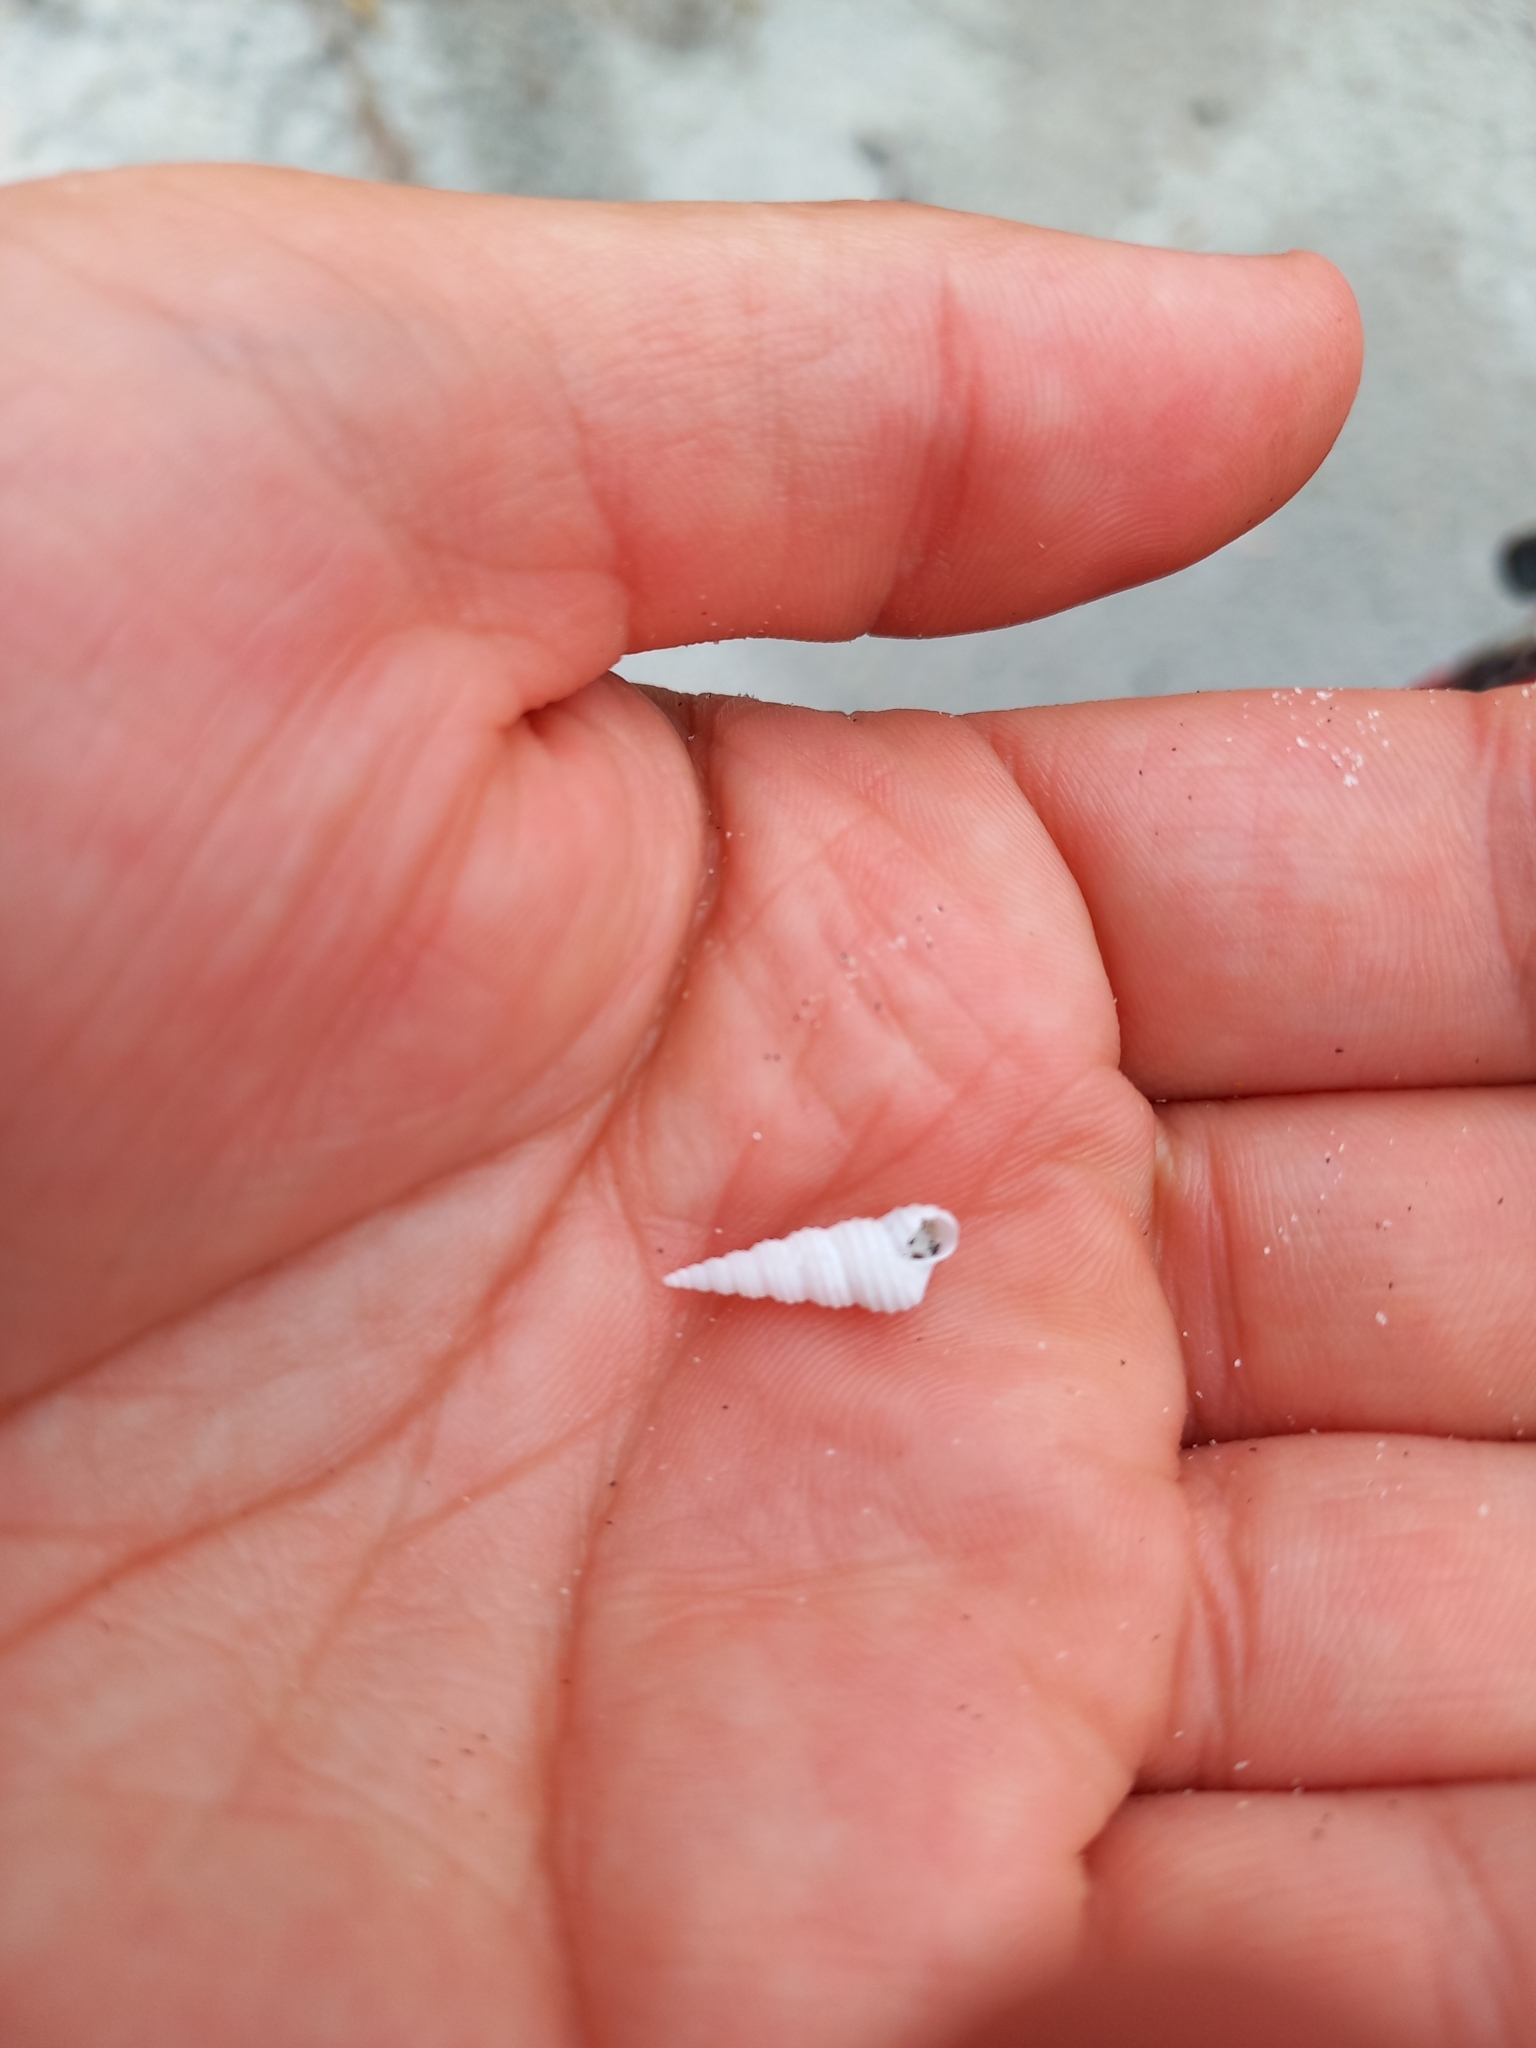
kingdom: Animalia
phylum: Mollusca
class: Gastropoda
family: Turritellidae
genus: Stiracolpus
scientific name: Stiracolpus symmetricus
